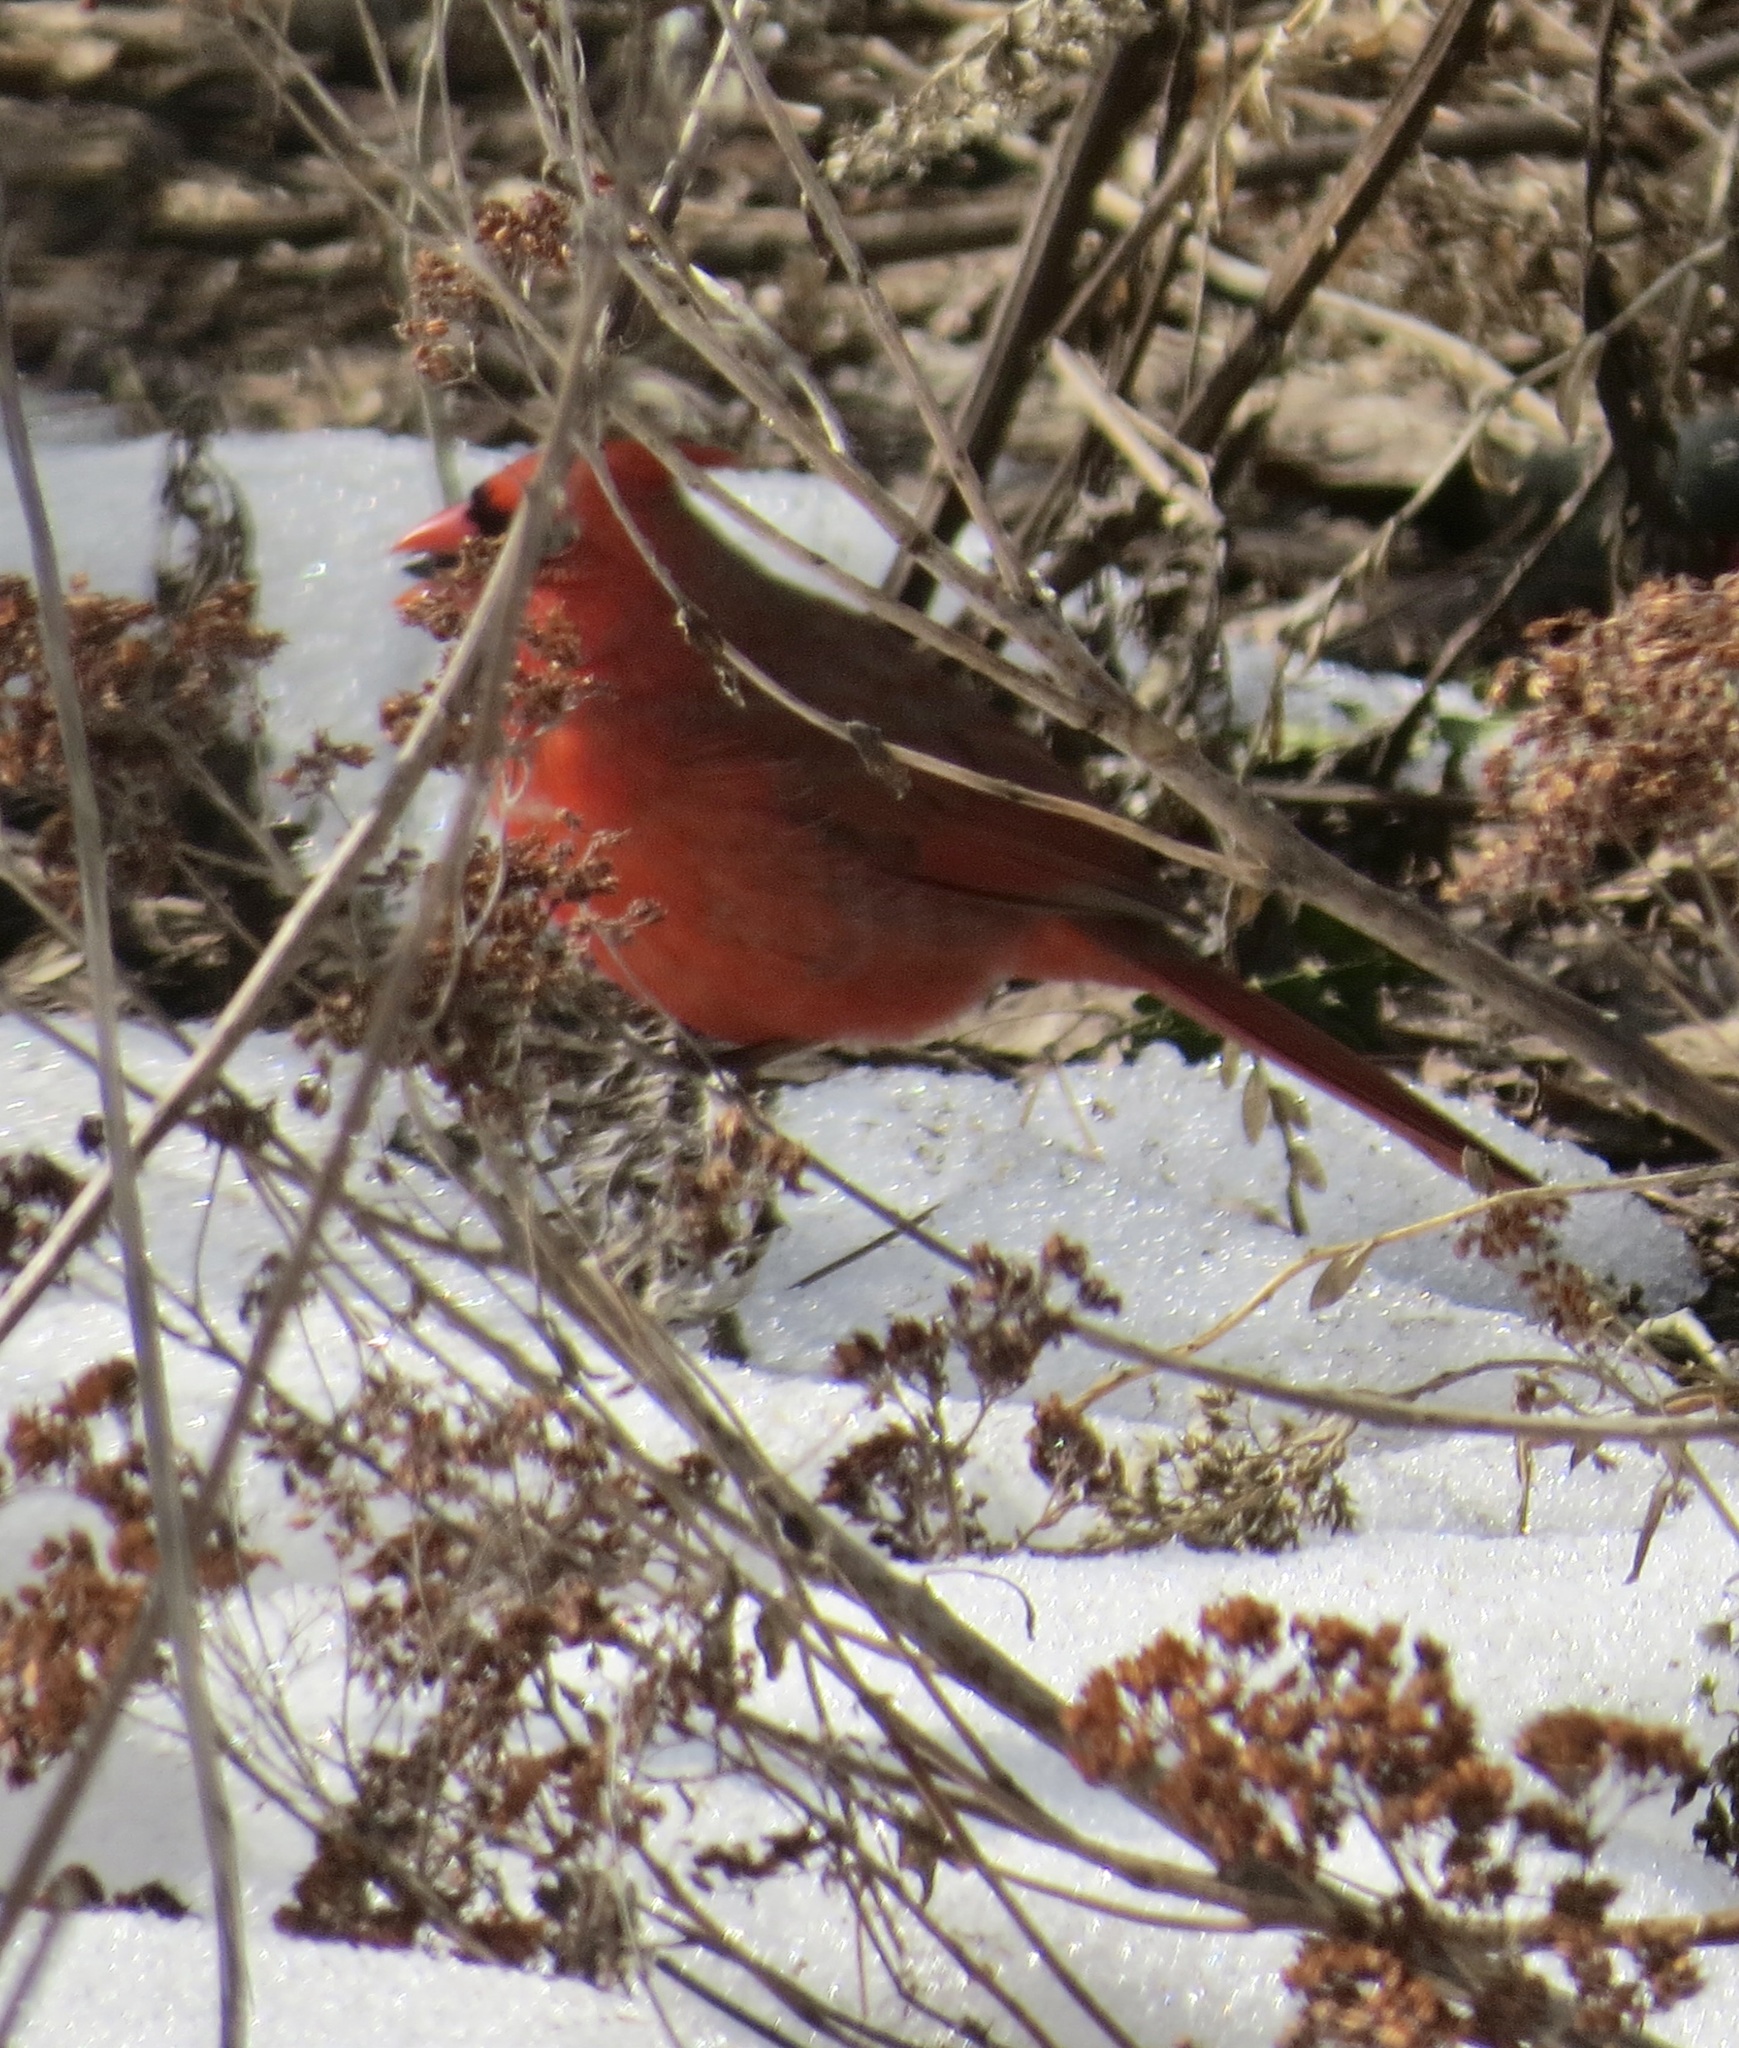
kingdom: Animalia
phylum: Chordata
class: Aves
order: Passeriformes
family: Cardinalidae
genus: Cardinalis
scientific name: Cardinalis cardinalis
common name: Northern cardinal
